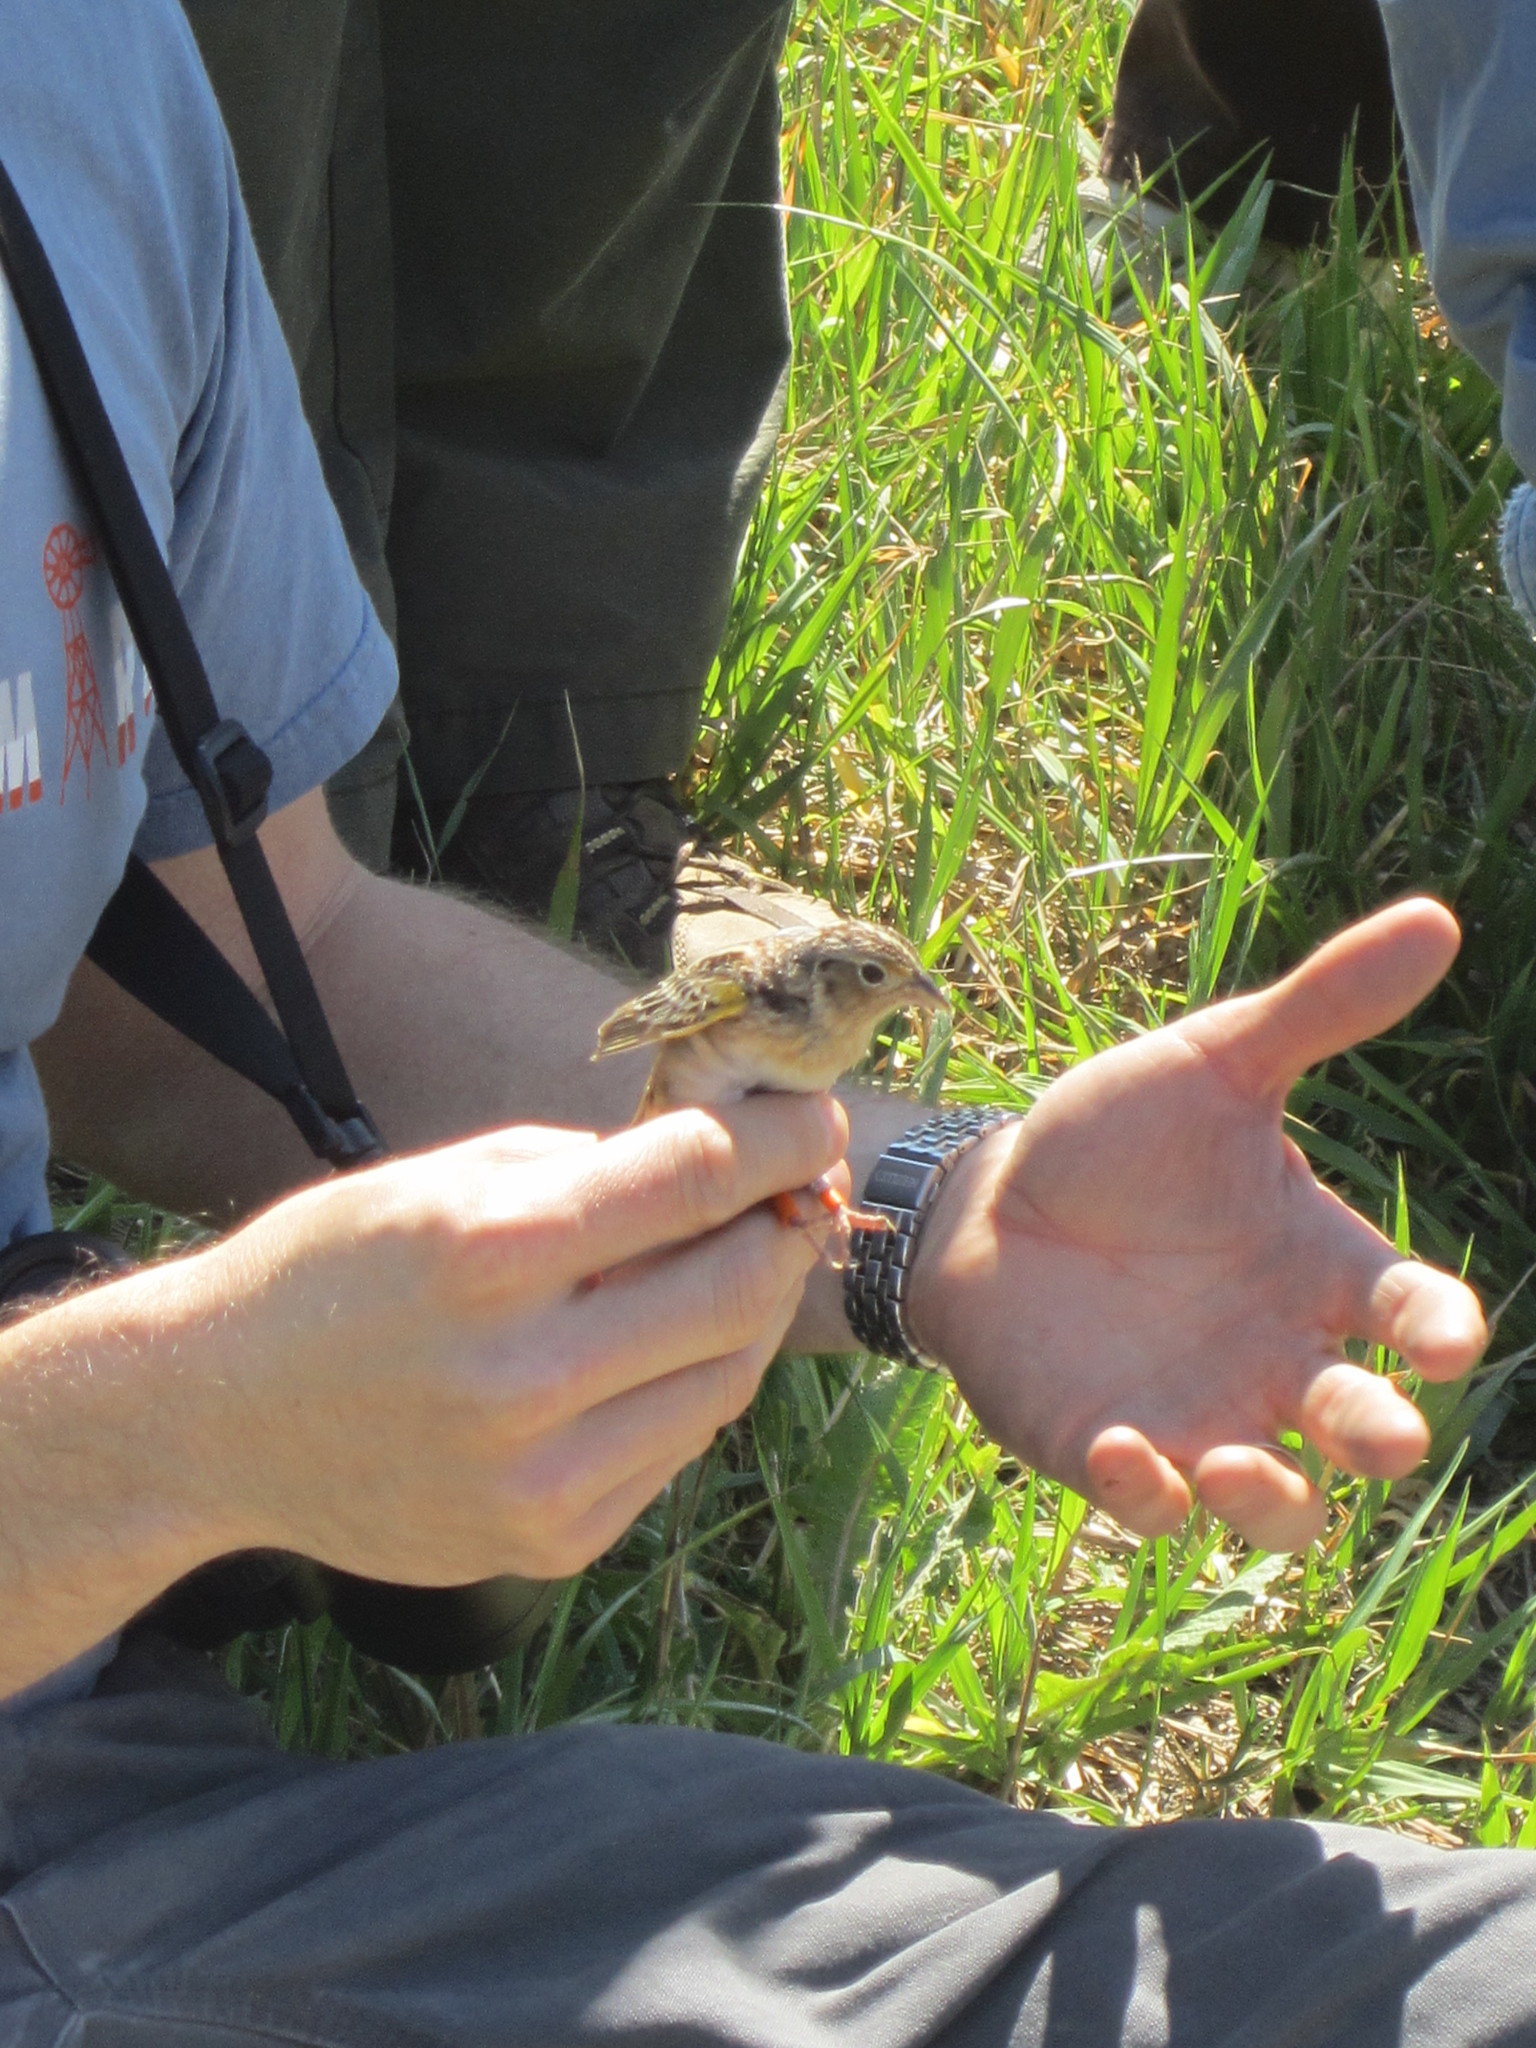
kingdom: Animalia
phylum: Chordata
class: Aves
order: Passeriformes
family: Passerellidae
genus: Ammodramus
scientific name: Ammodramus savannarum
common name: Grasshopper sparrow
